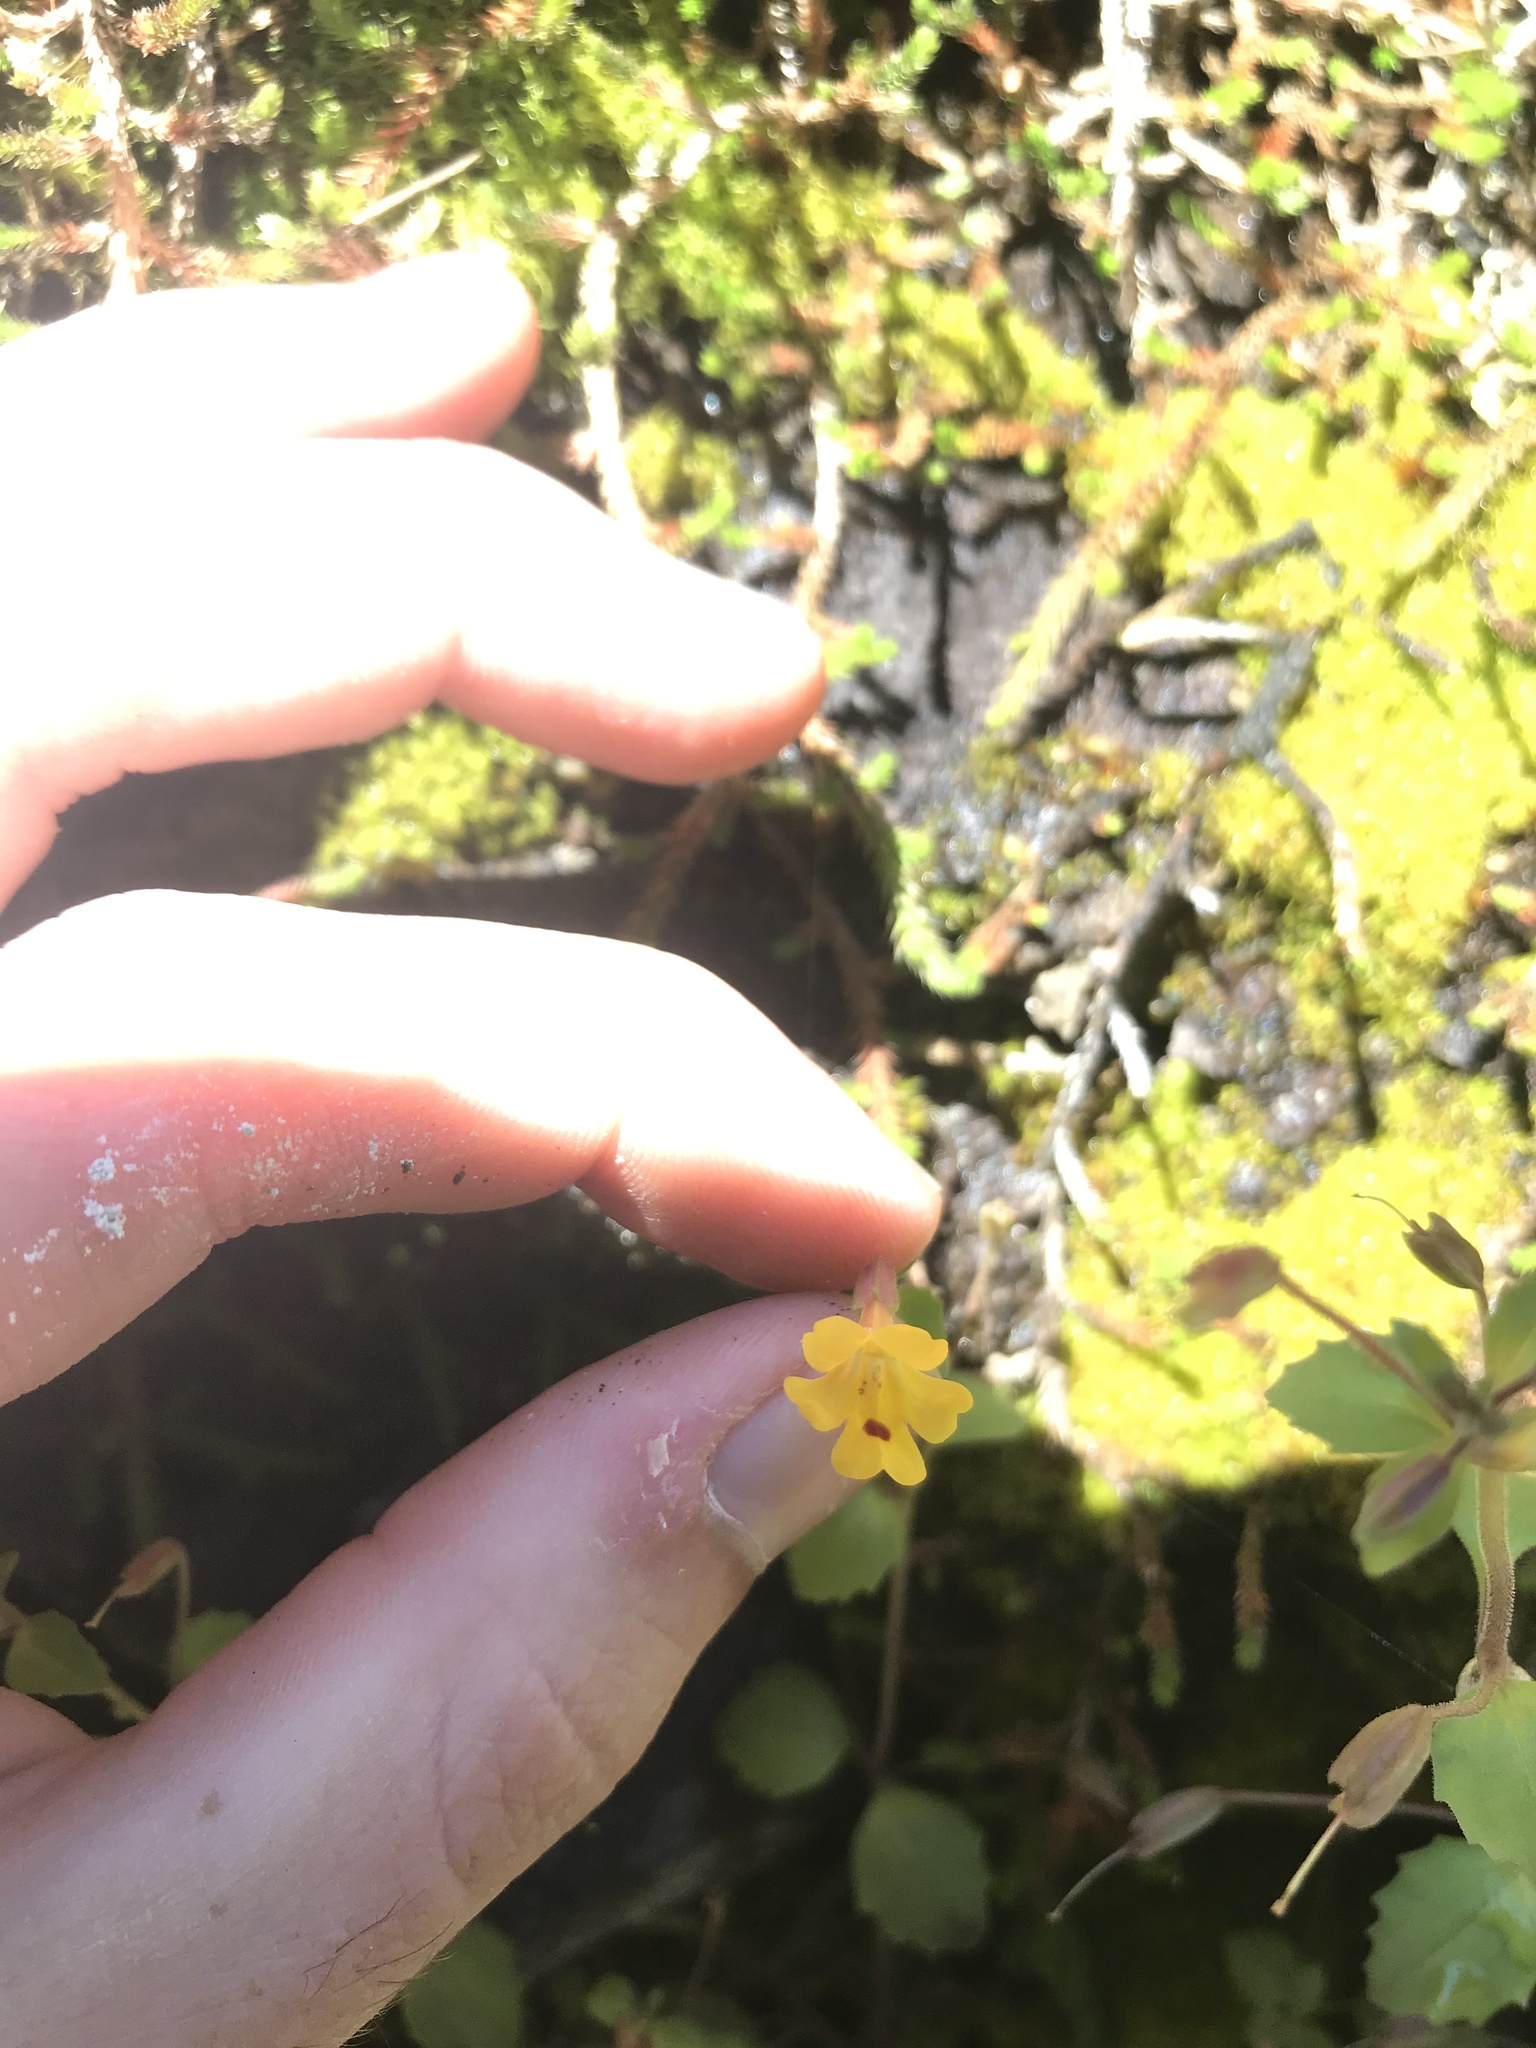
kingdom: Plantae
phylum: Tracheophyta
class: Magnoliopsida
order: Lamiales
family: Phrymaceae
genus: Erythranthe
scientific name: Erythranthe alsinoides
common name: Chickweed monkeyflower
